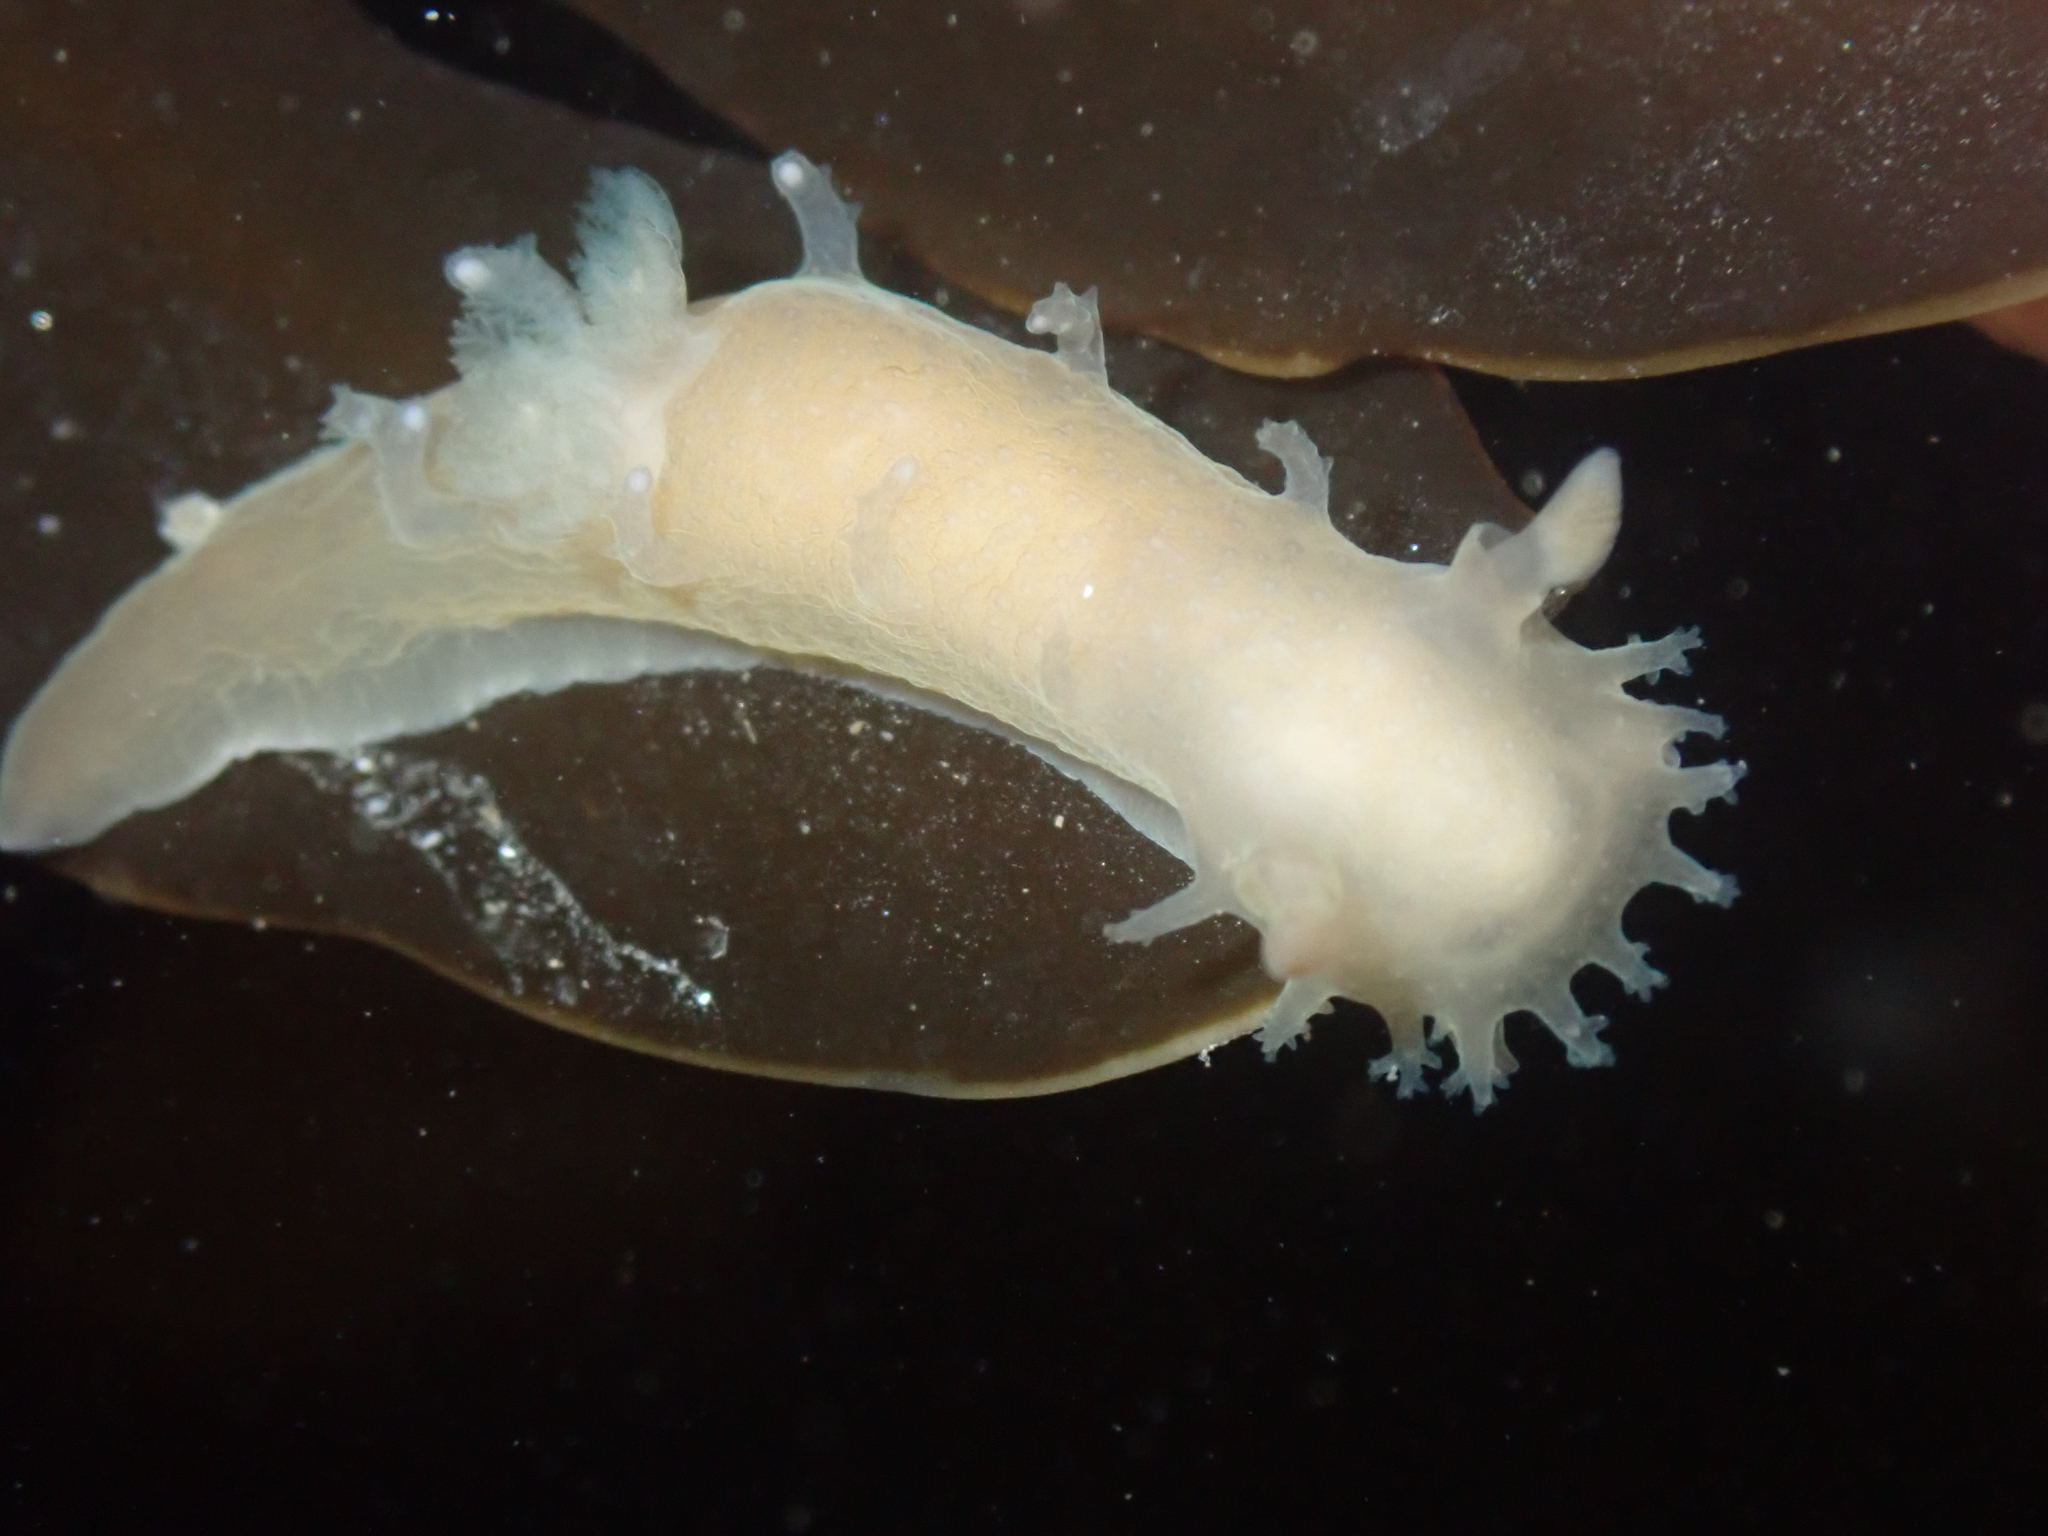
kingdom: Animalia
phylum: Mollusca
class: Gastropoda
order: Nudibranchia
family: Polyceridae
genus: Triopha
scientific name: Triopha maculata
